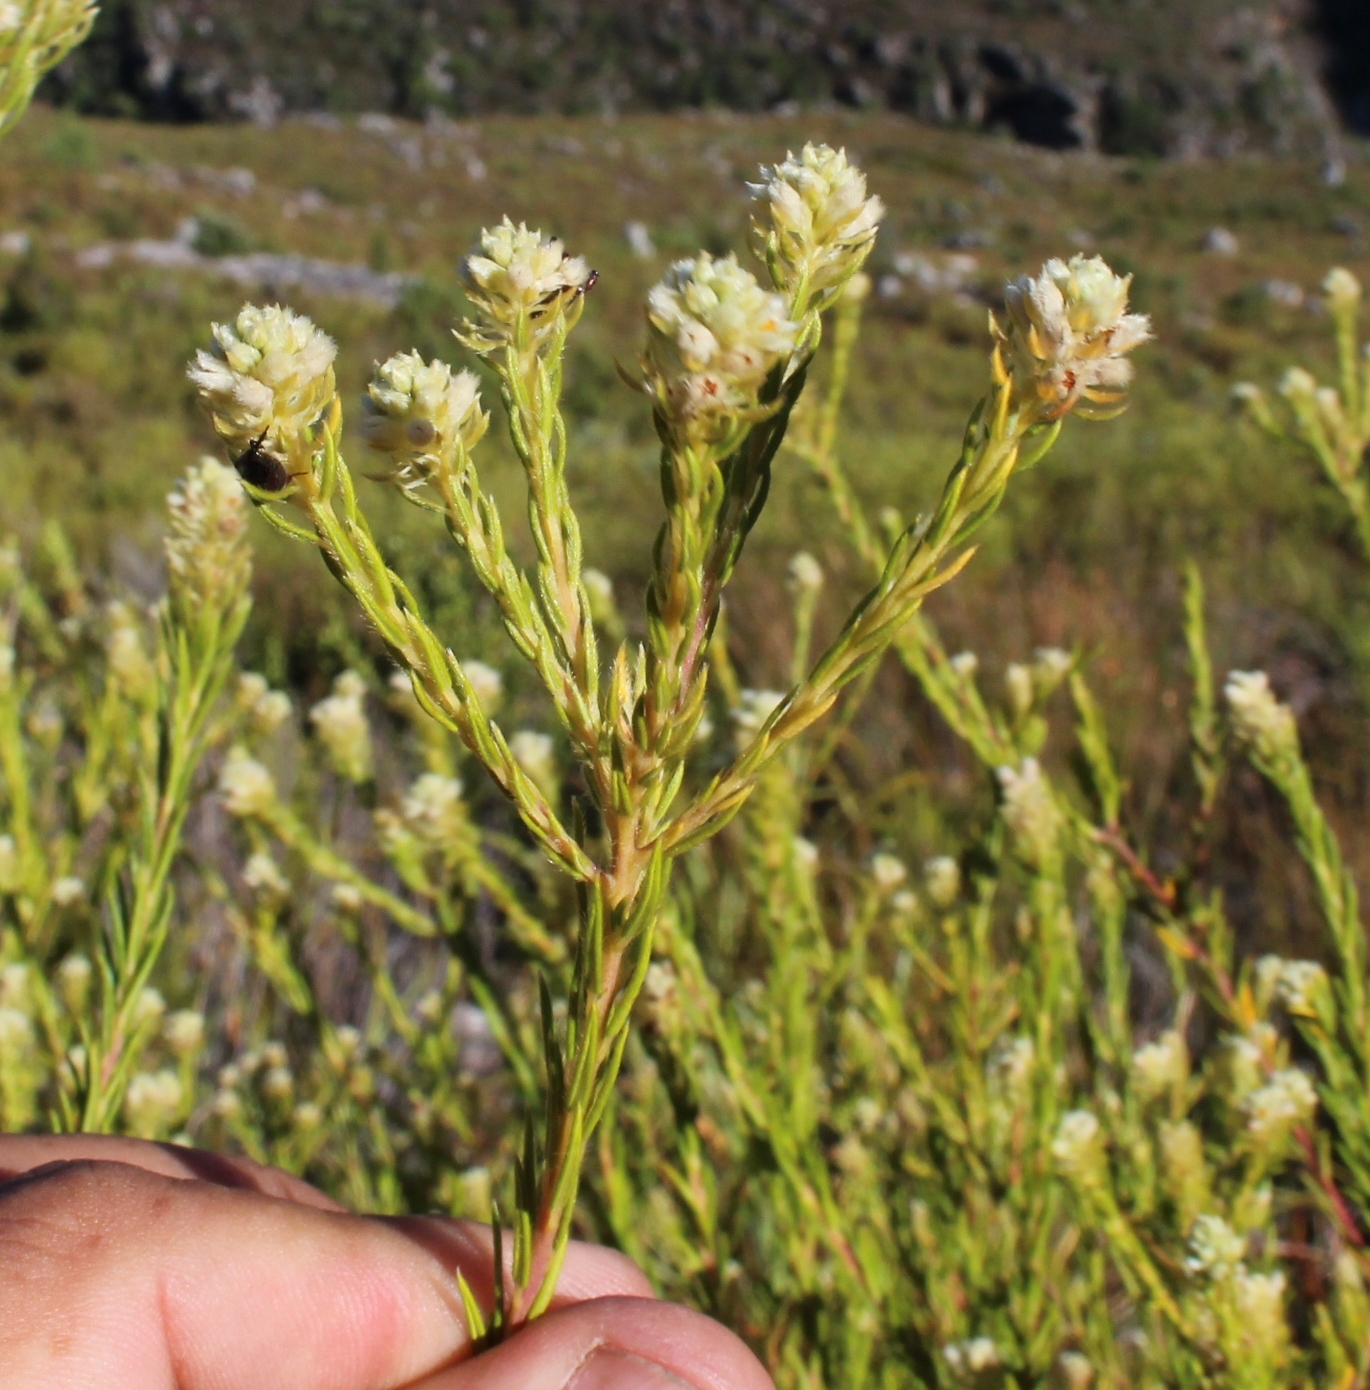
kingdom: Plantae
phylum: Tracheophyta
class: Magnoliopsida
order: Rosales
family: Rhamnaceae
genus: Phylica
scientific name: Phylica excelsa
